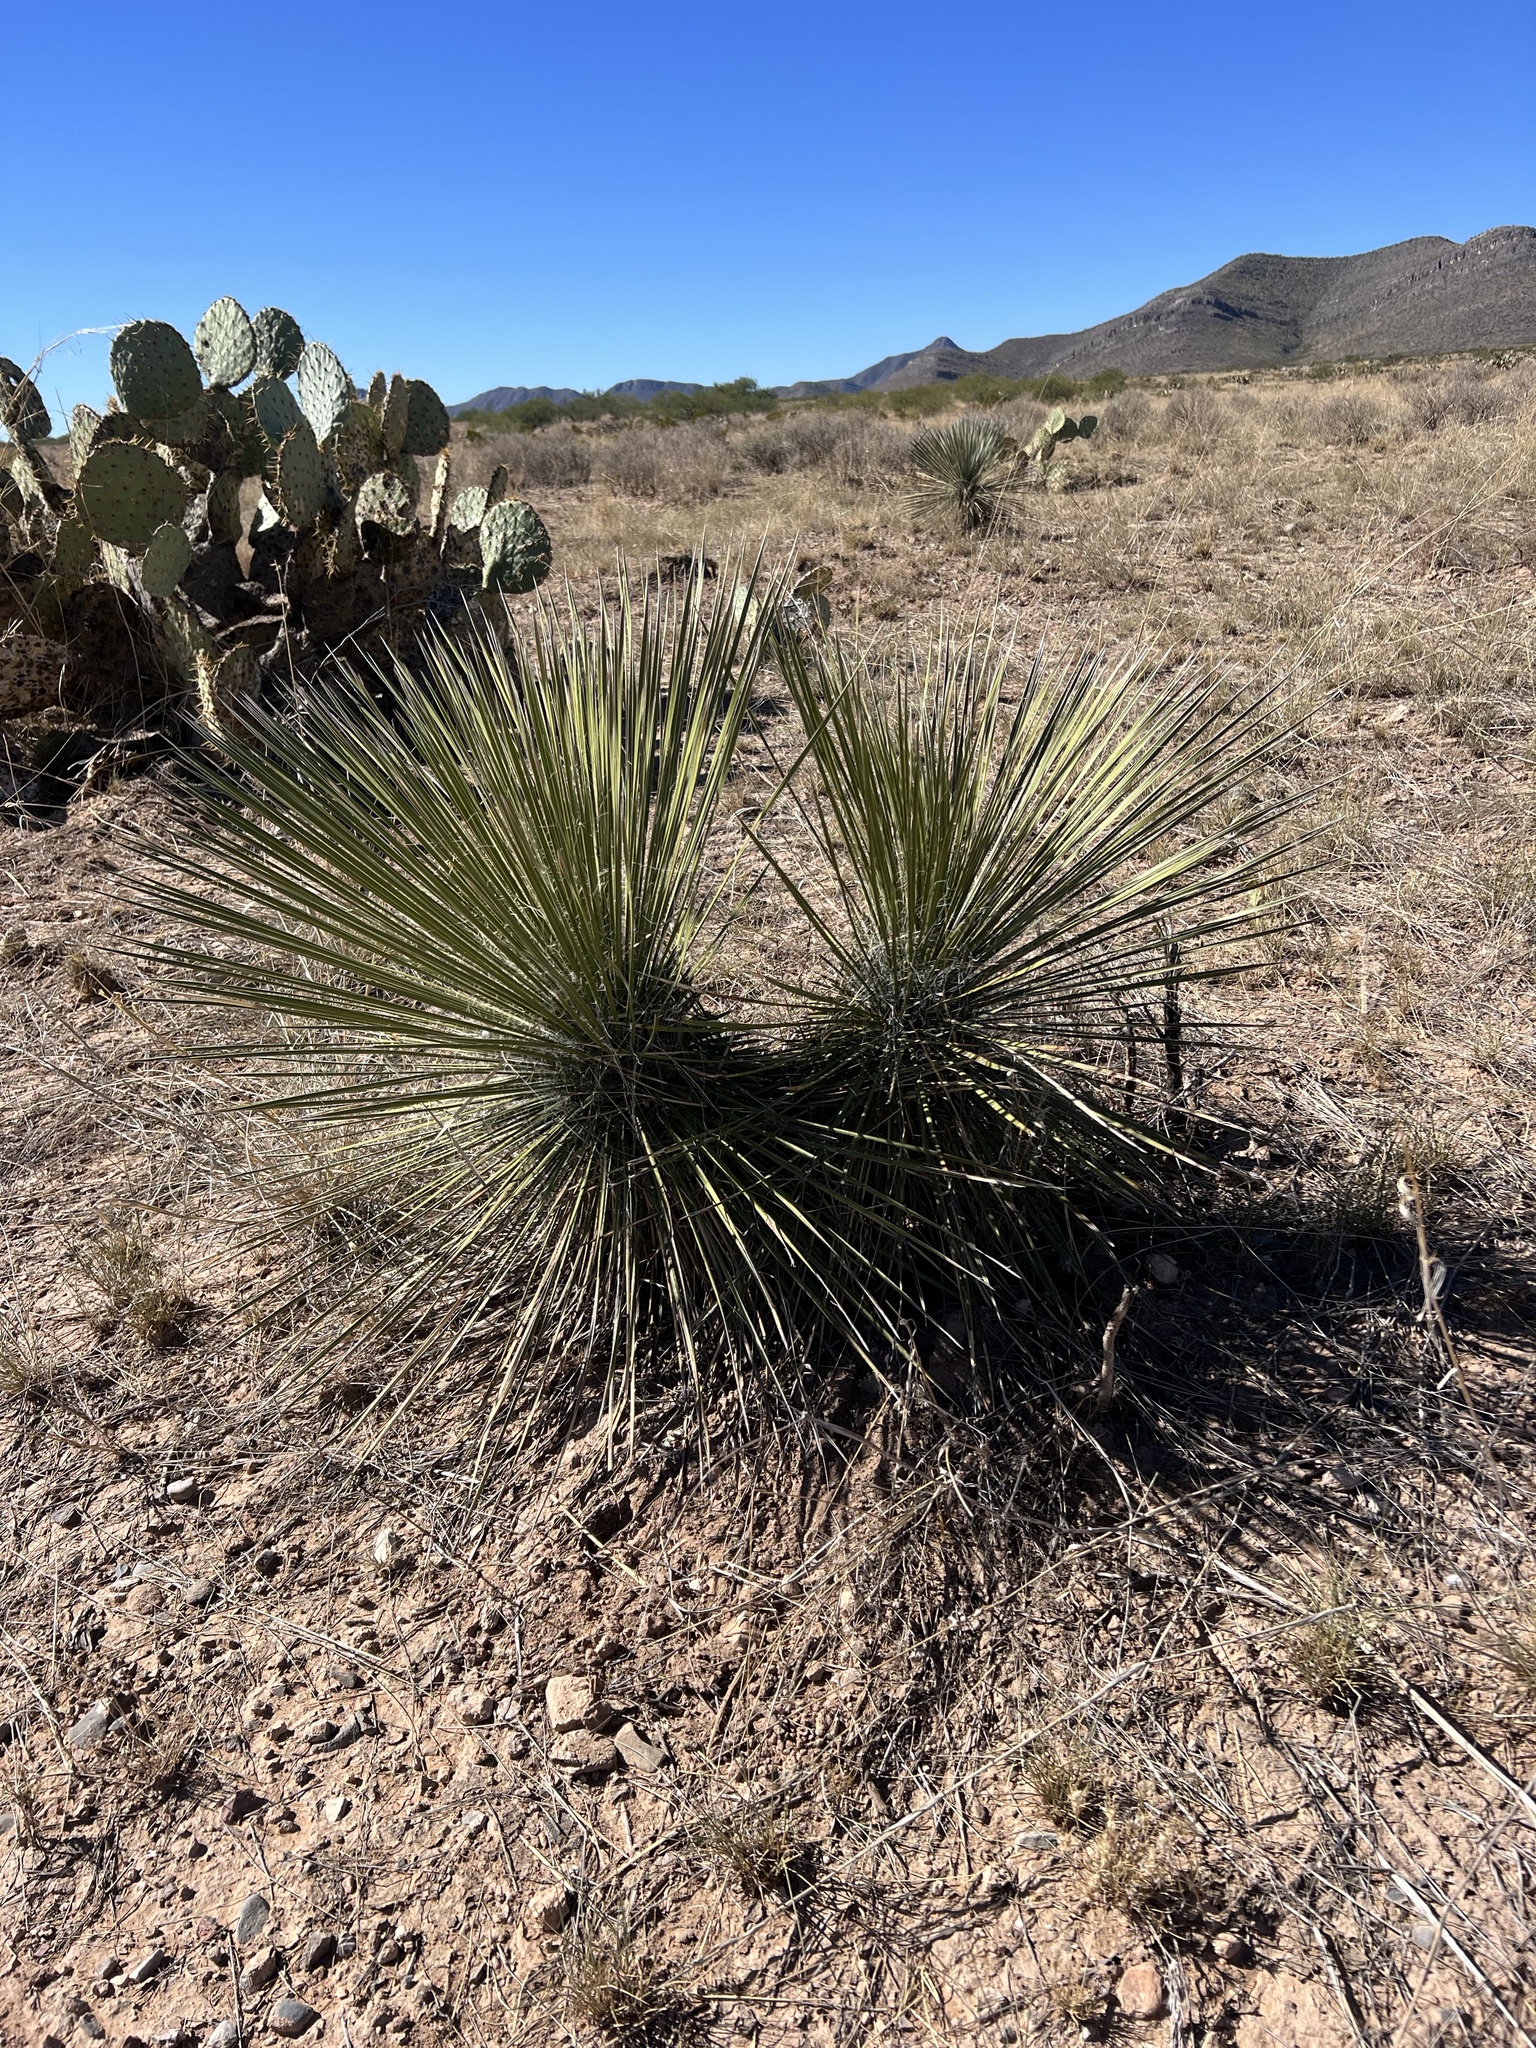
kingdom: Plantae
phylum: Tracheophyta
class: Liliopsida
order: Asparagales
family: Asparagaceae
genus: Yucca
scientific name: Yucca elata
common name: Palmella
